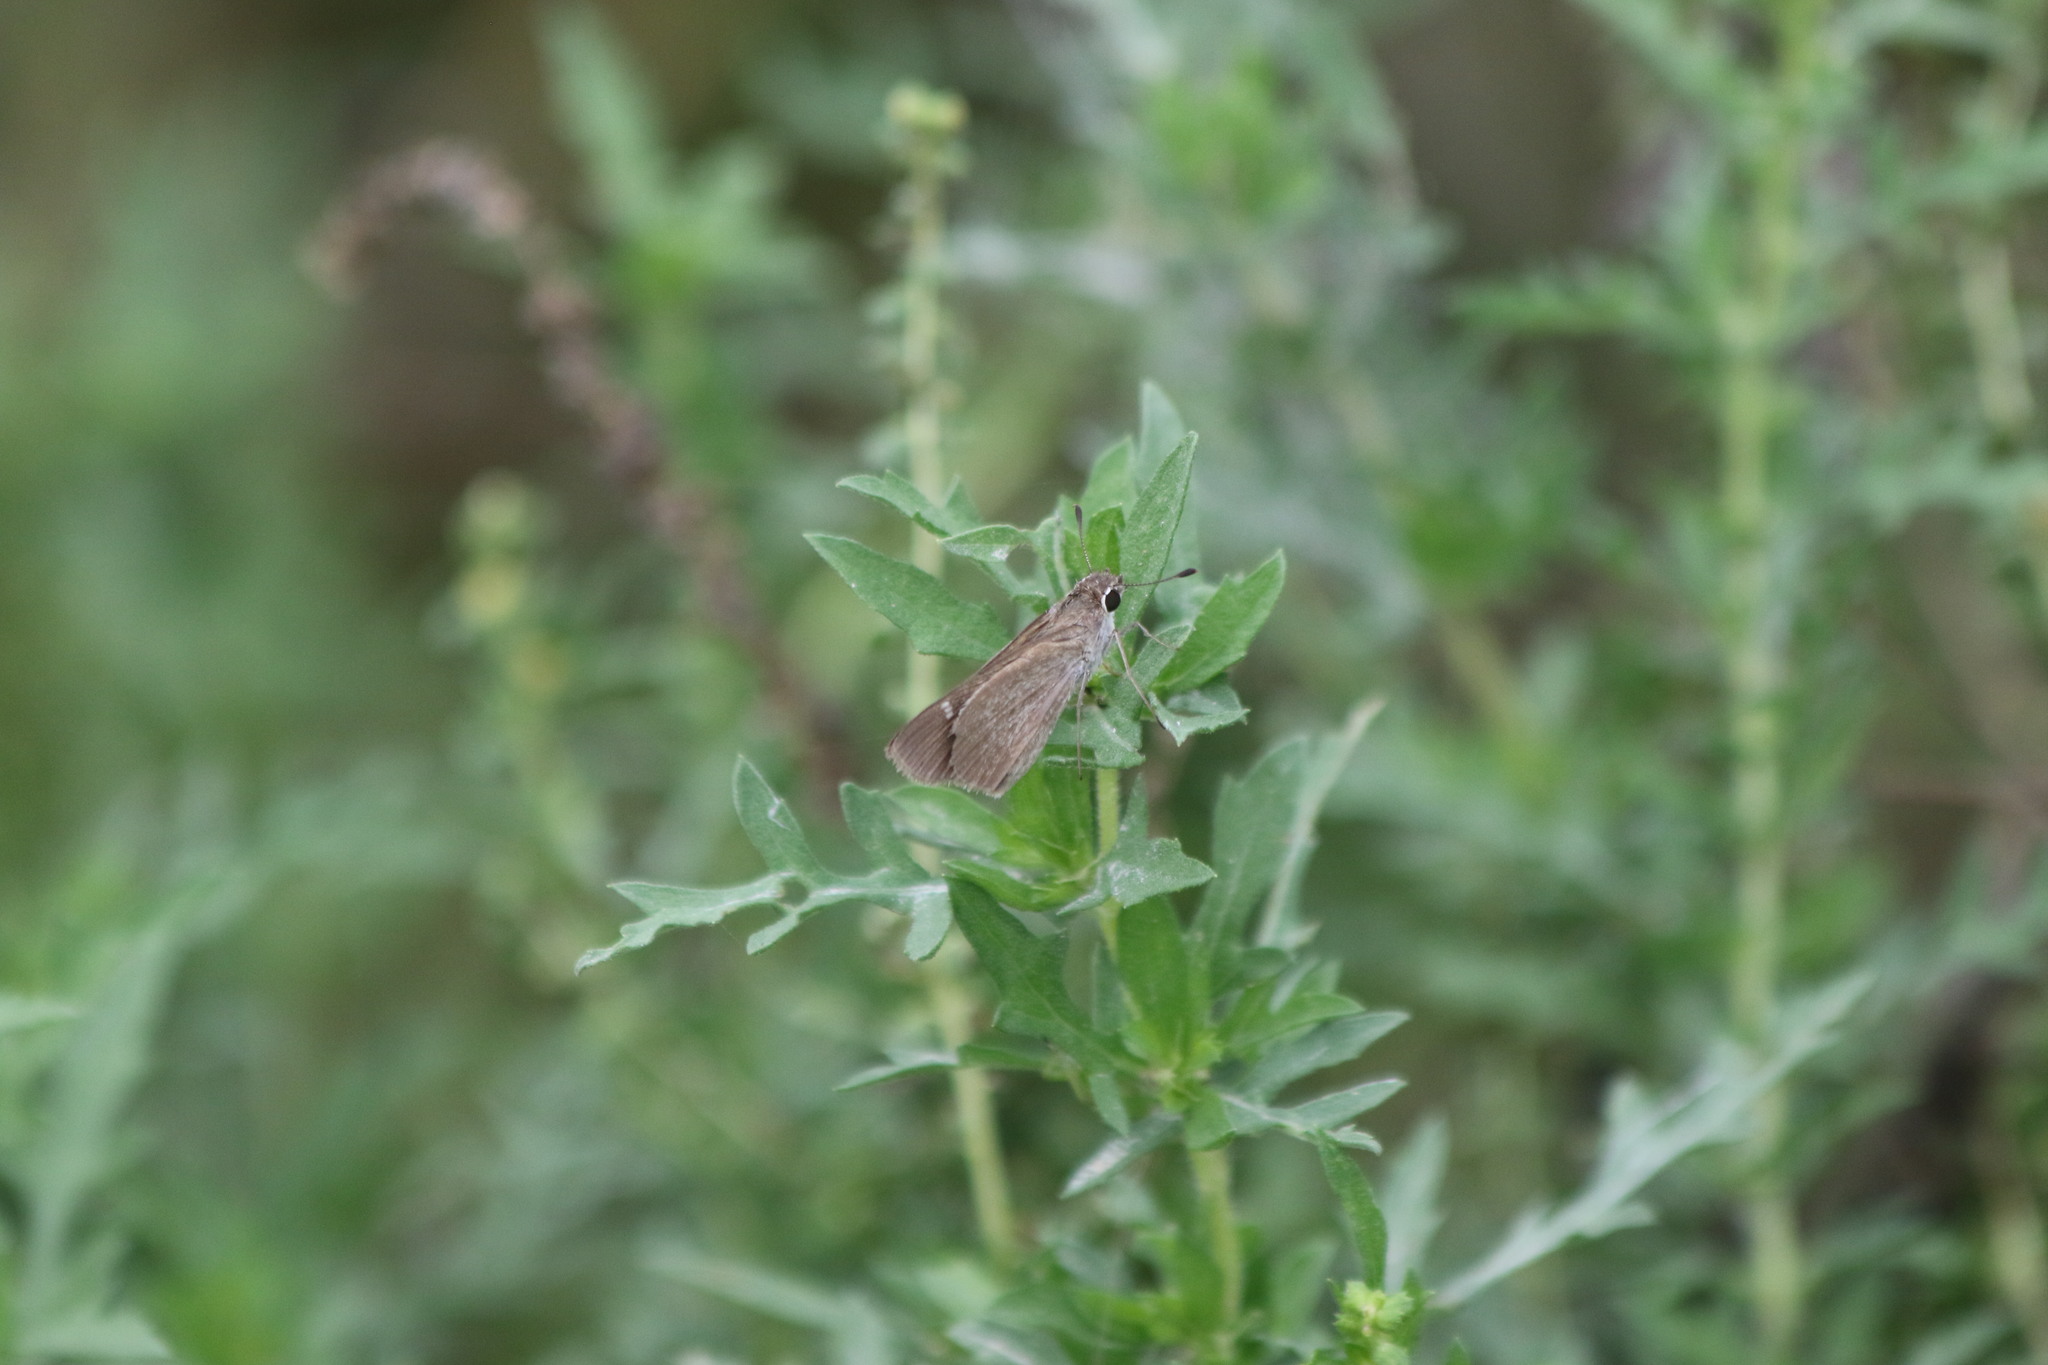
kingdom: Animalia
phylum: Arthropoda
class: Insecta
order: Lepidoptera
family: Hesperiidae
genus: Lerodea
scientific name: Lerodea eufala
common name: Eufala skipper
